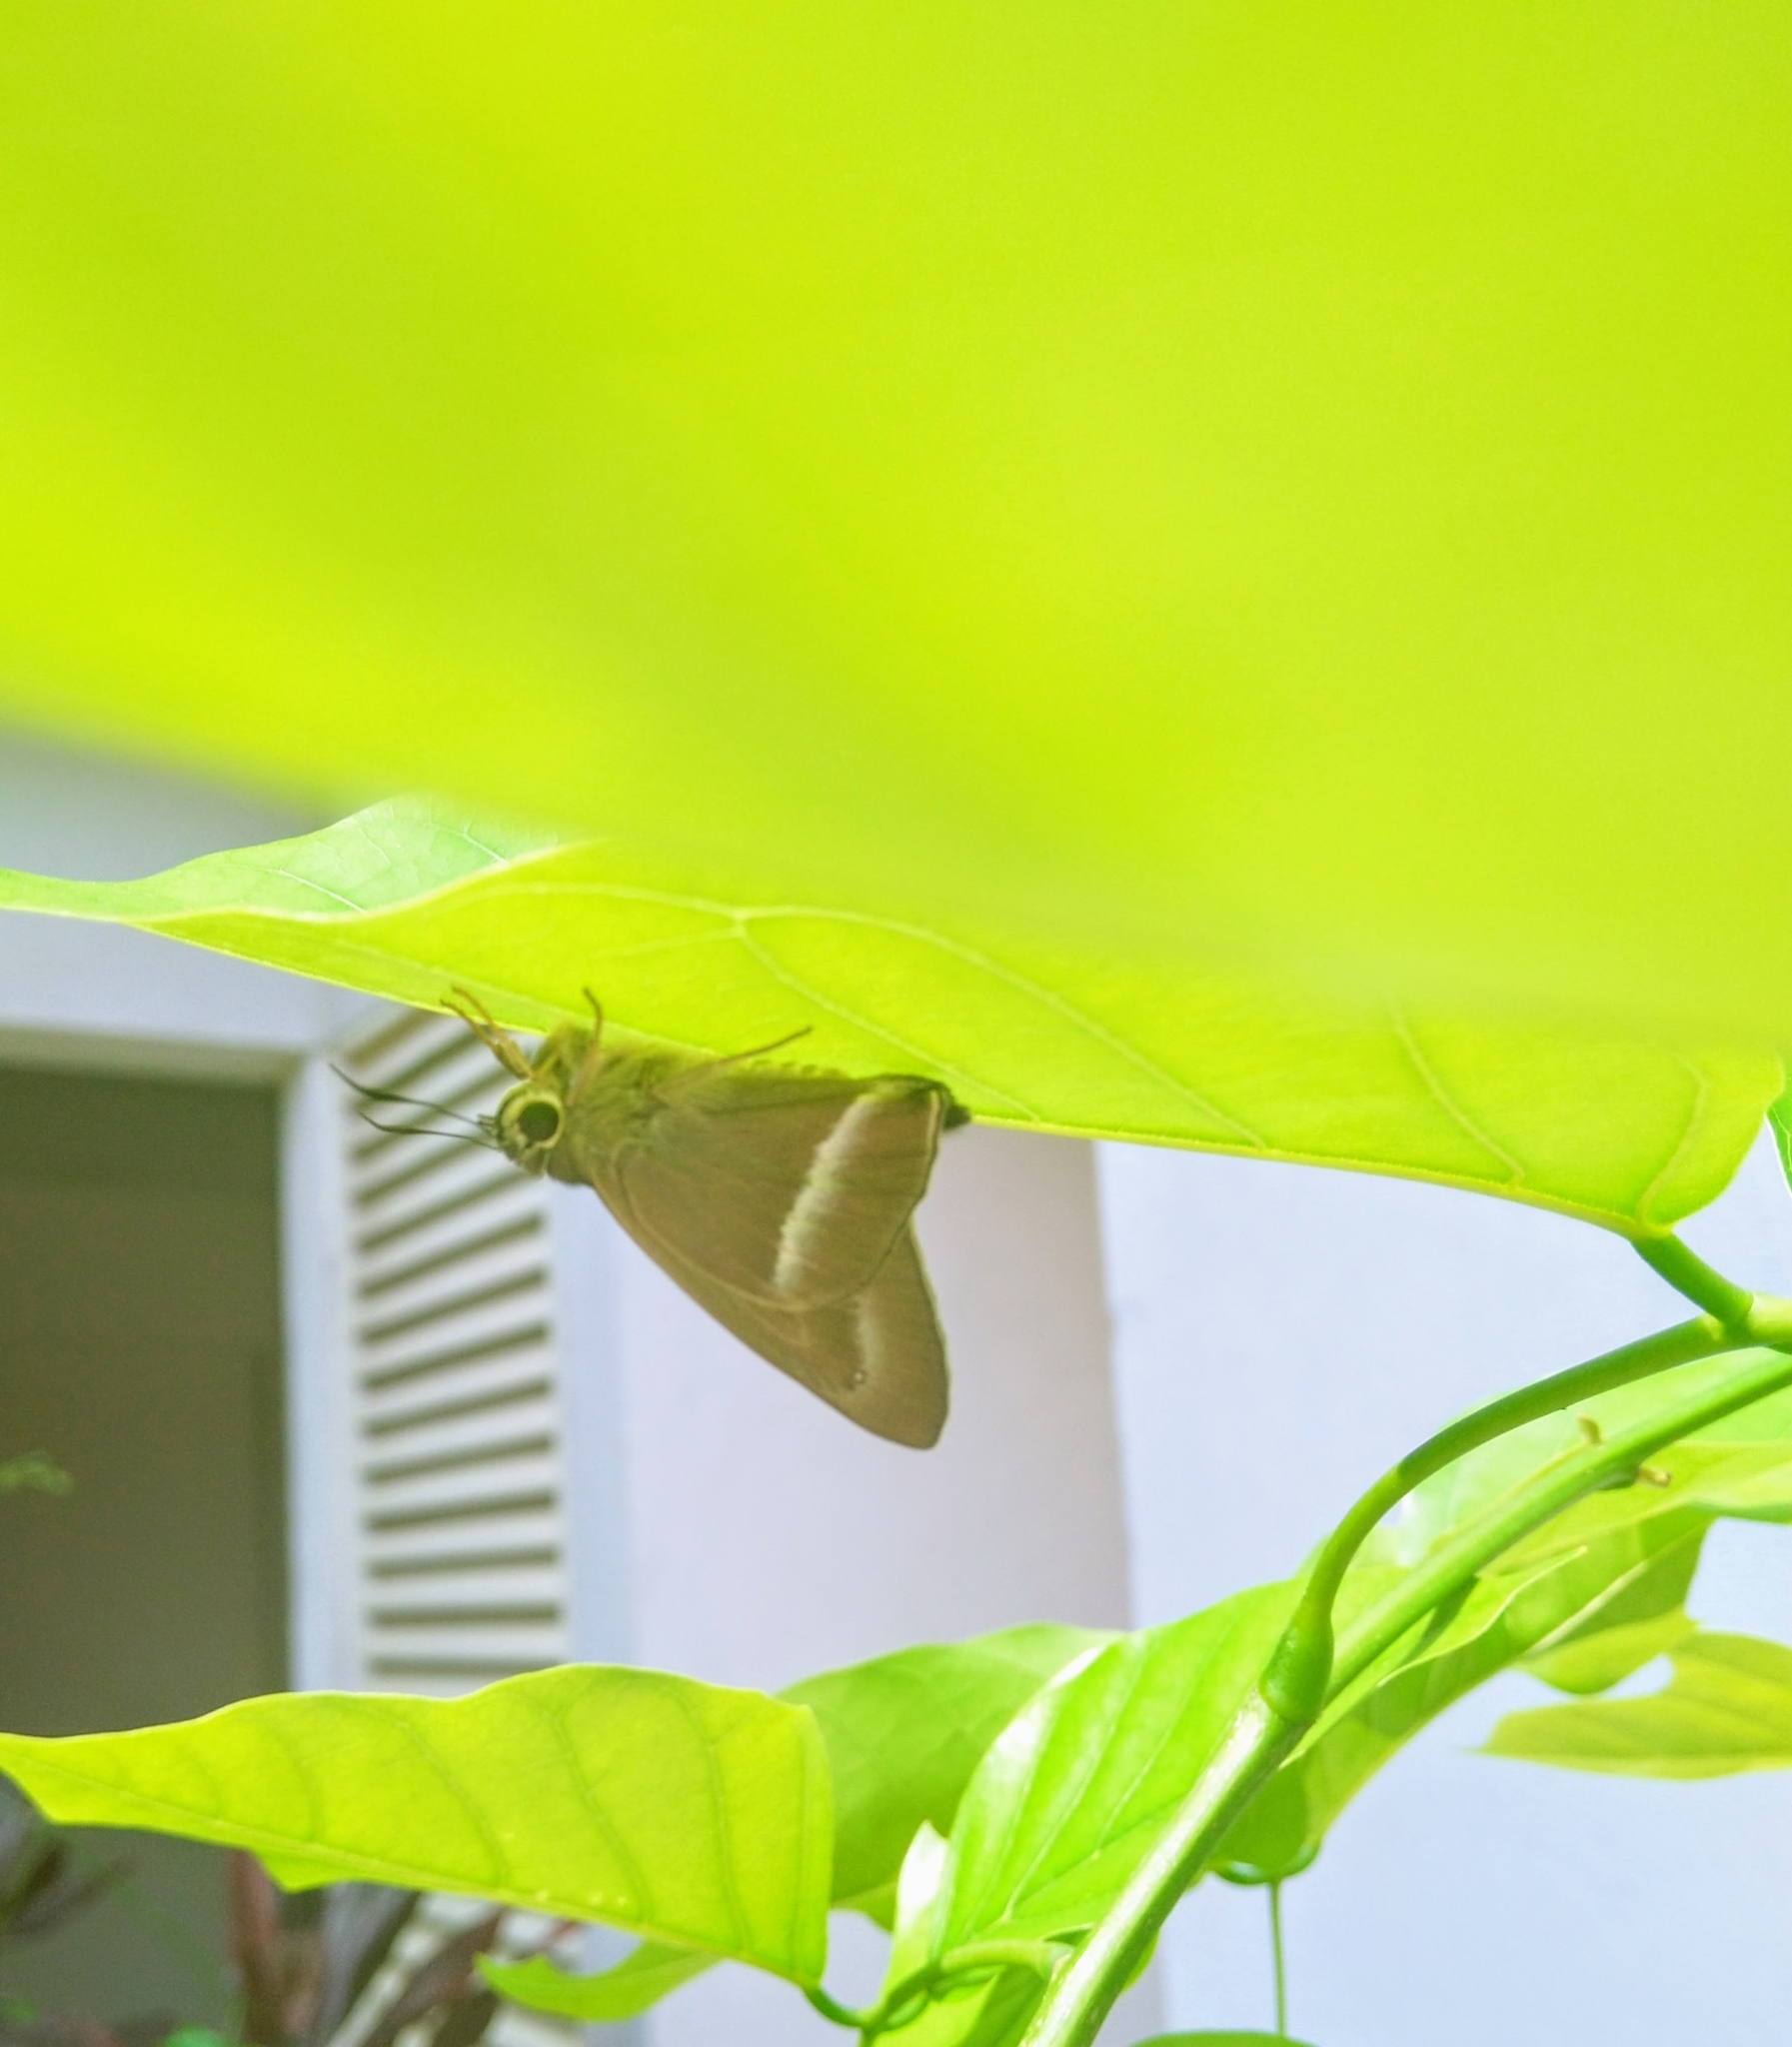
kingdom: Animalia
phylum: Arthropoda
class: Insecta
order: Lepidoptera
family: Hesperiidae
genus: Hasora
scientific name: Hasora chromus
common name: Common banded awl
